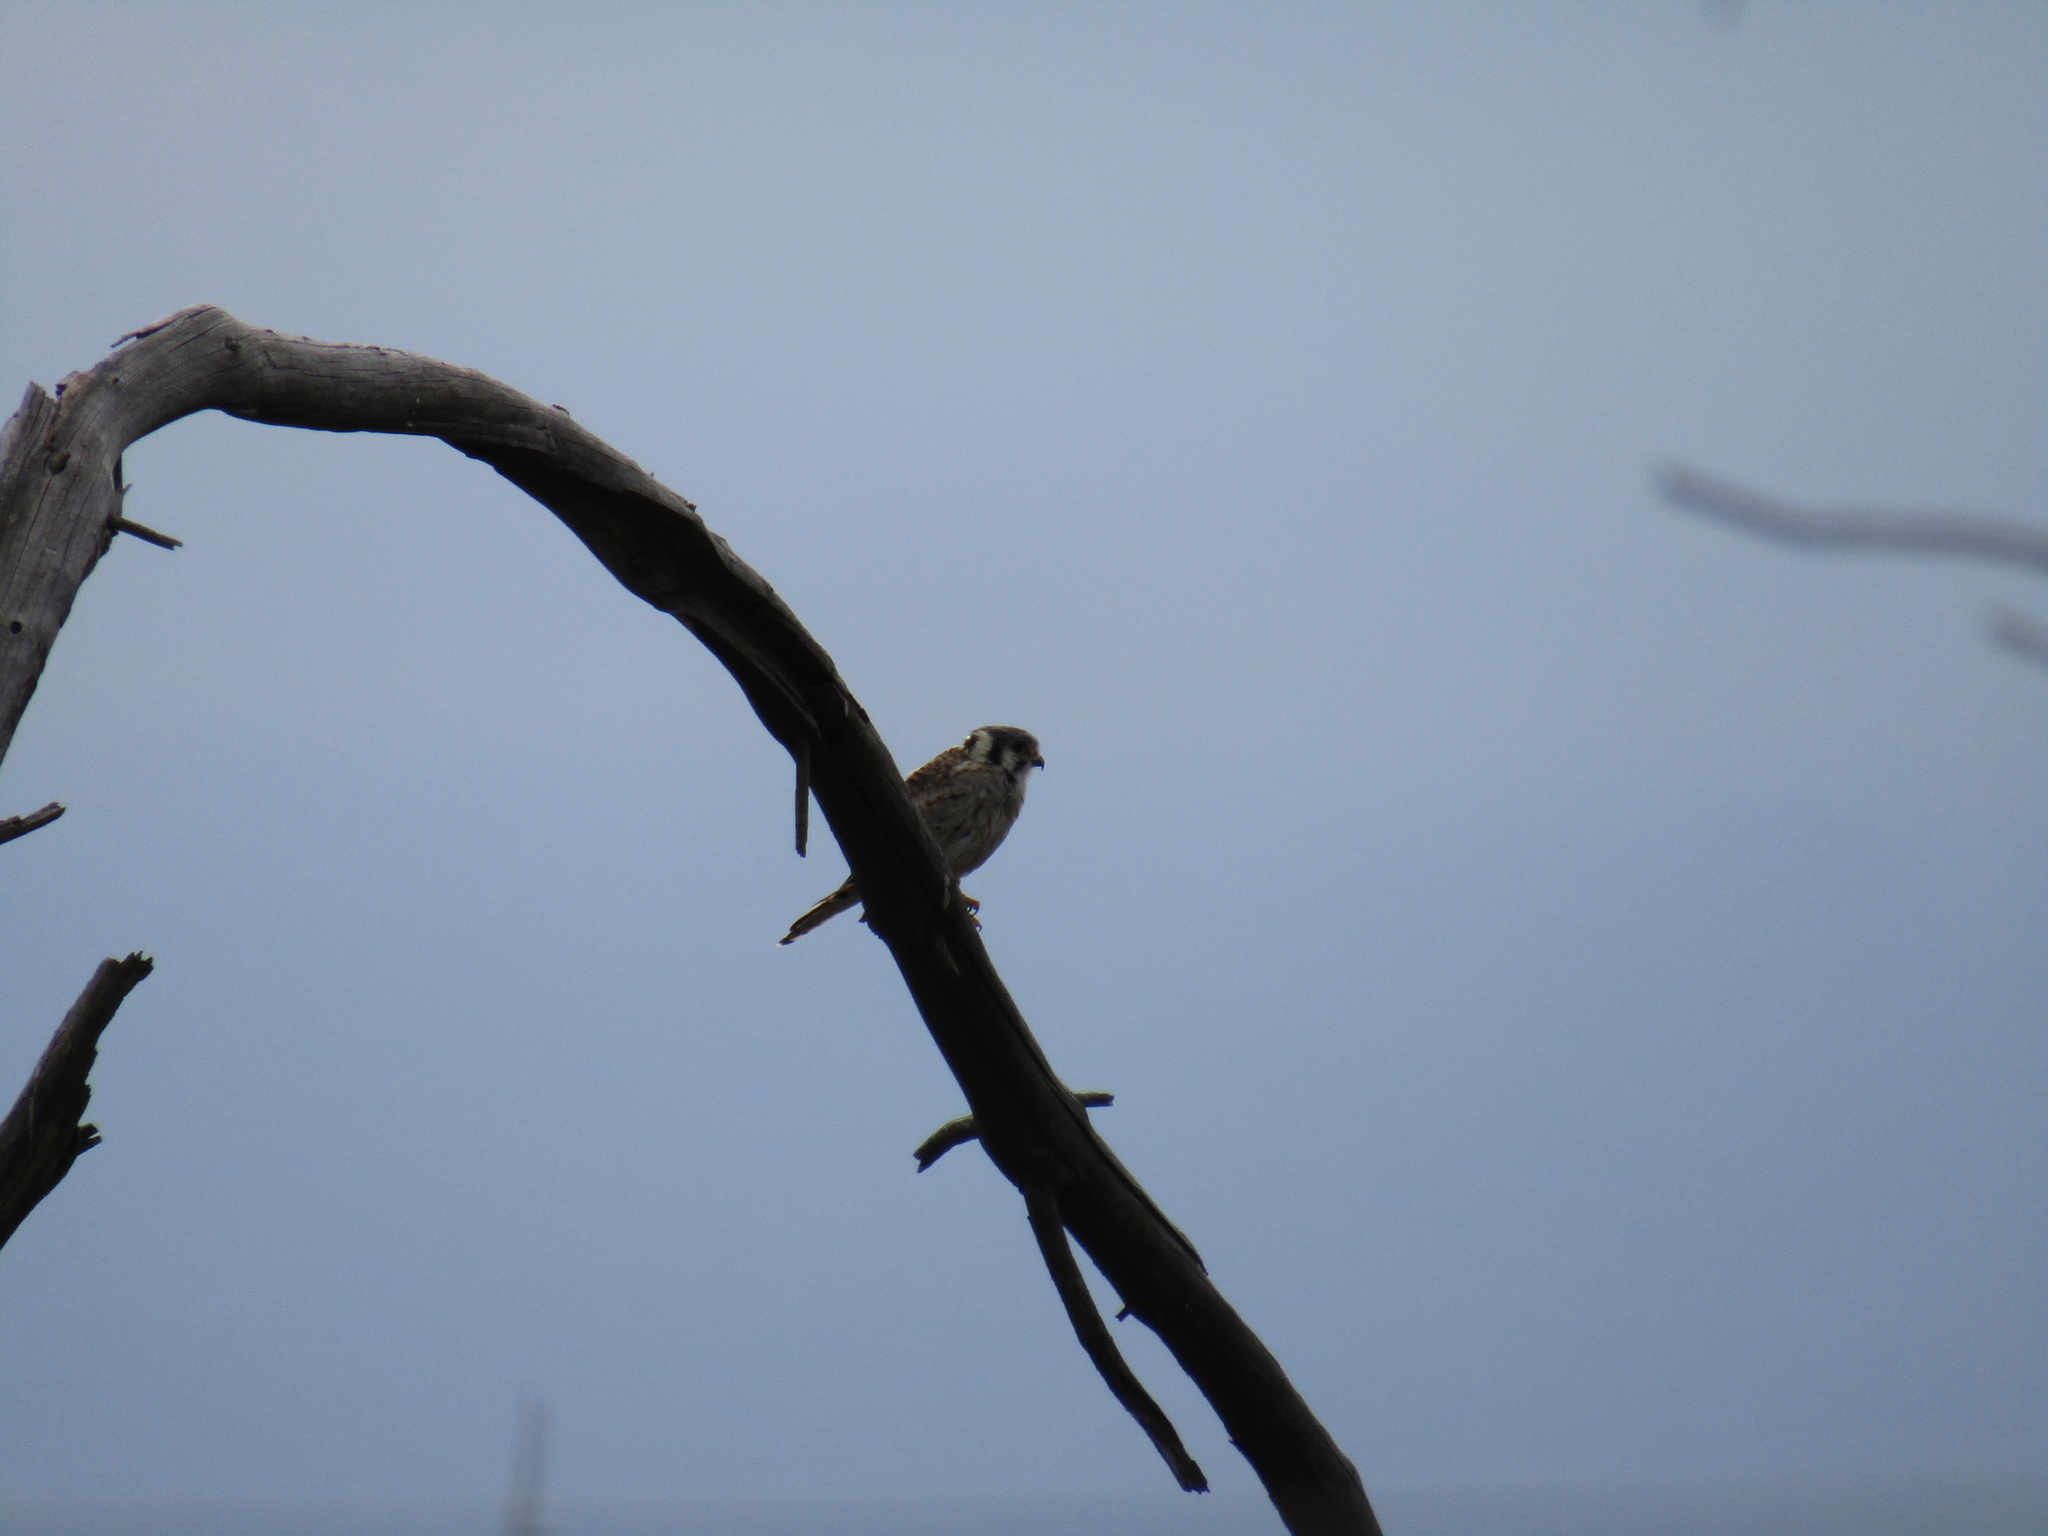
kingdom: Animalia
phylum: Chordata
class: Aves
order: Falconiformes
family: Falconidae
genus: Falco
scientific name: Falco sparverius
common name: American kestrel
